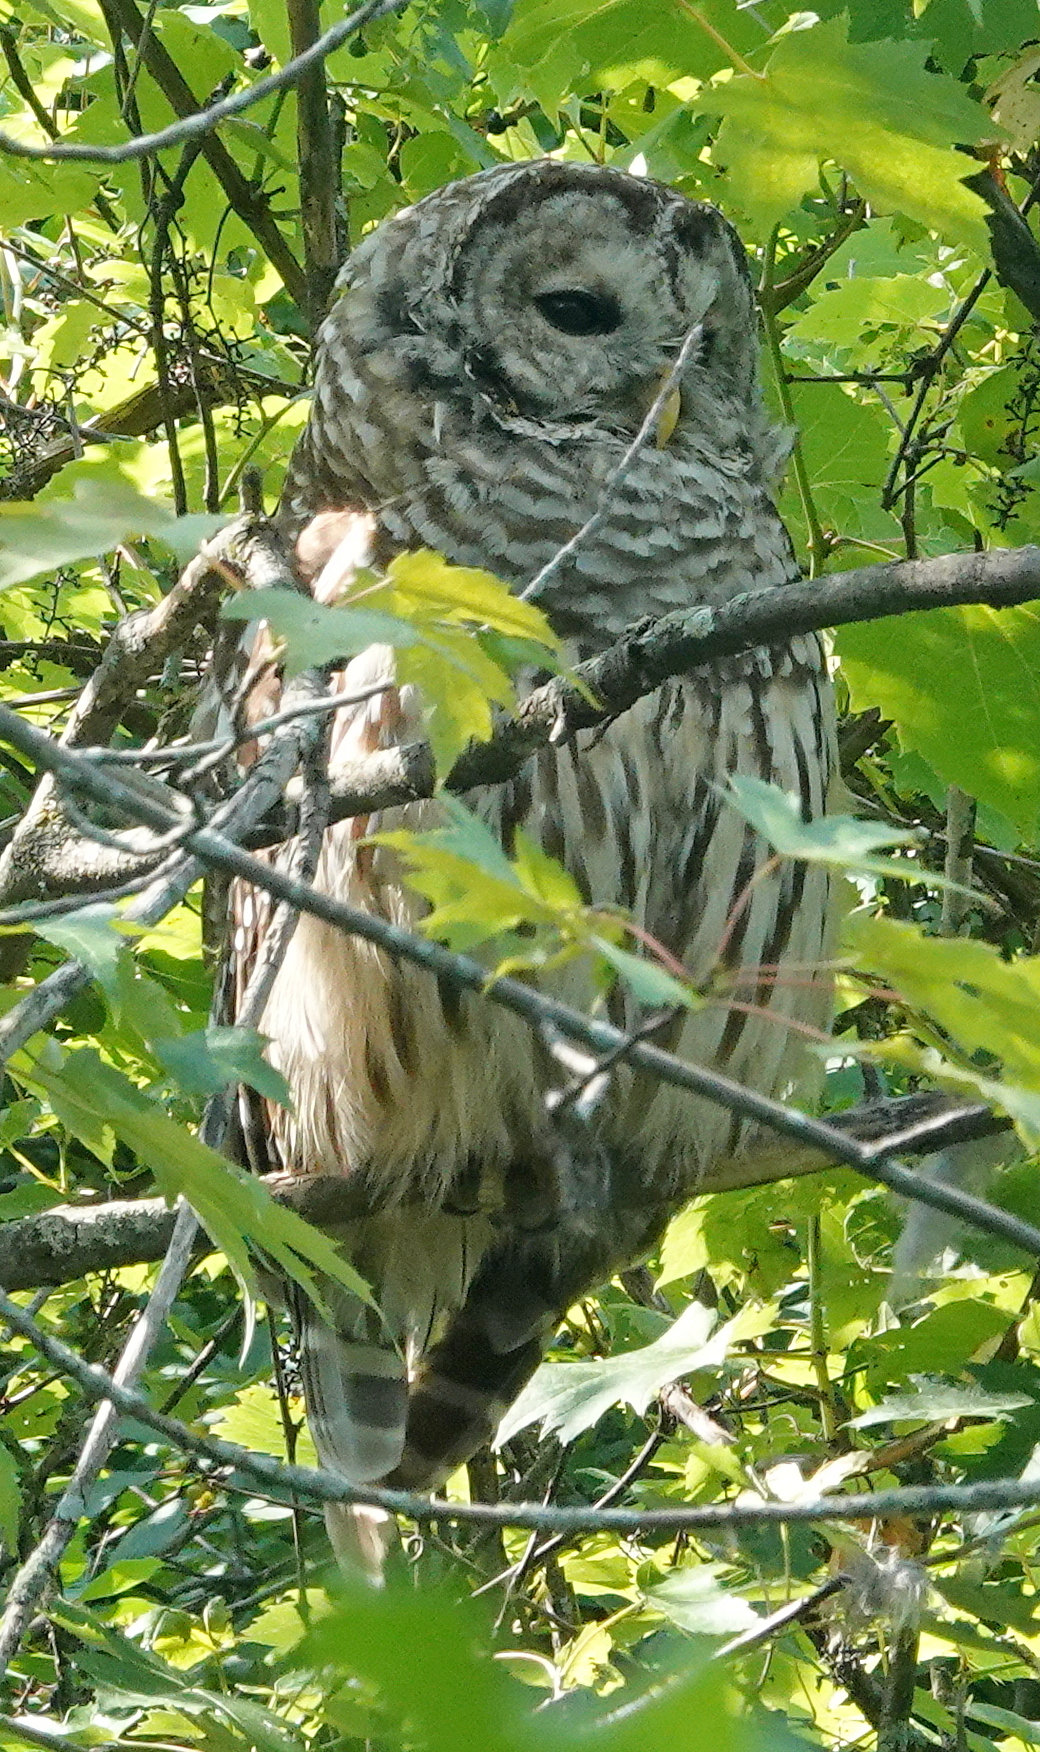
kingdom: Animalia
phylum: Chordata
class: Aves
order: Strigiformes
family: Strigidae
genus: Strix
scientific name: Strix varia
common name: Barred owl
